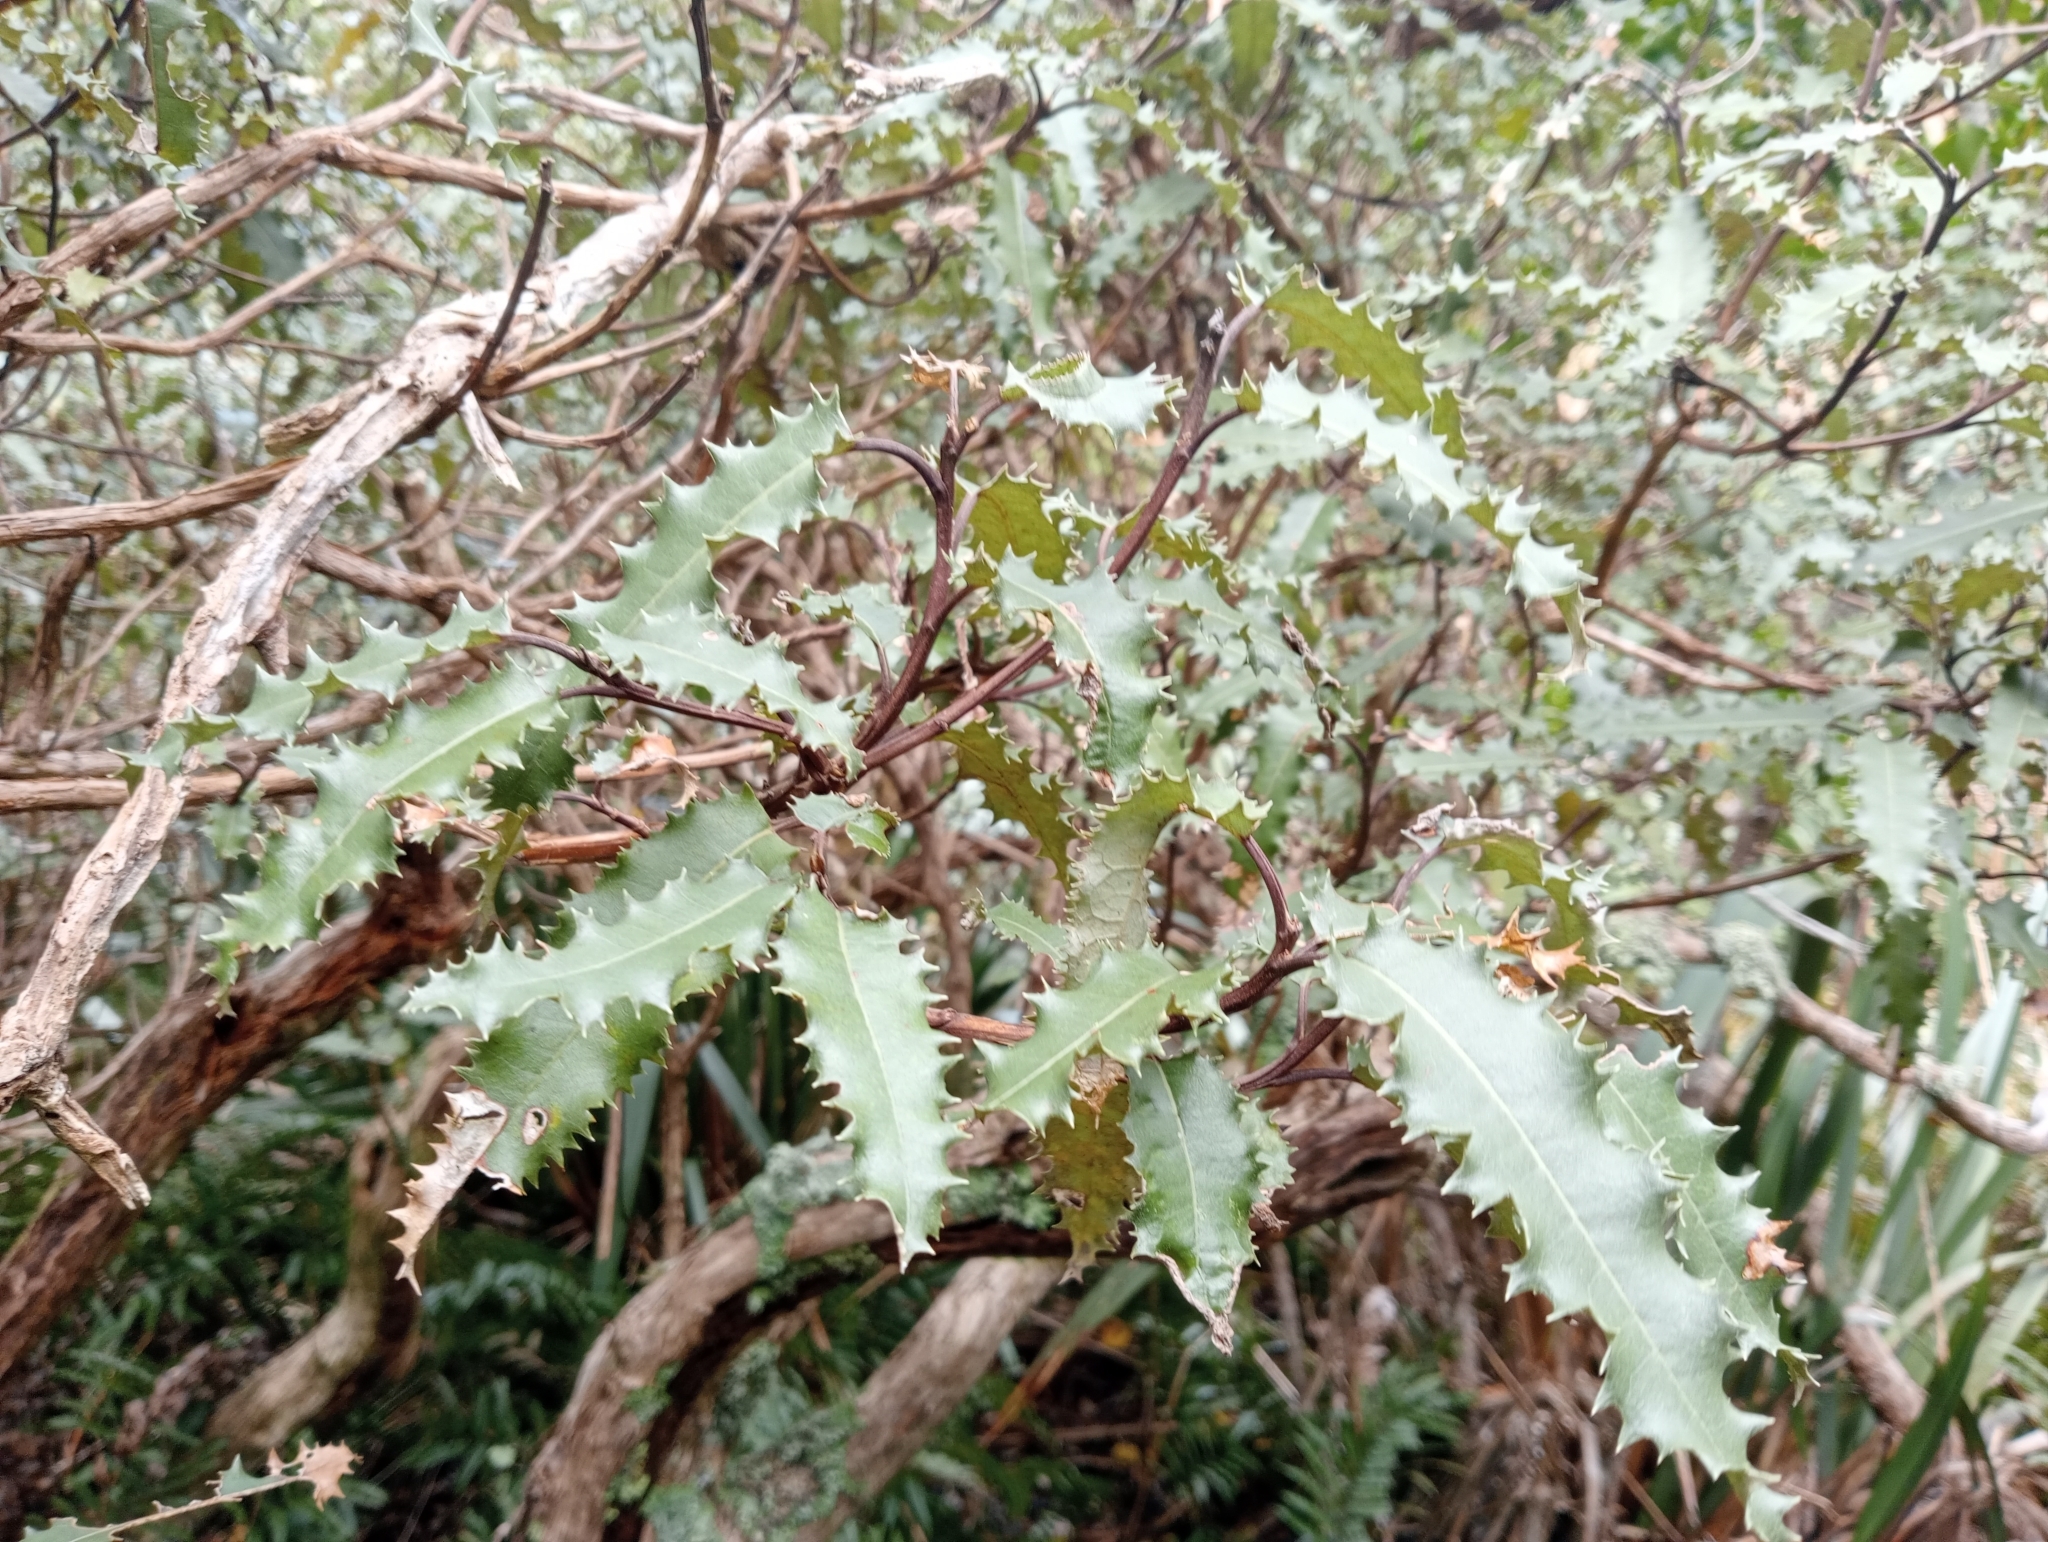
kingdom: Plantae
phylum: Tracheophyta
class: Magnoliopsida
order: Asterales
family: Asteraceae
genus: Olearia
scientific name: Olearia ilicifolia
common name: Maori-holly
